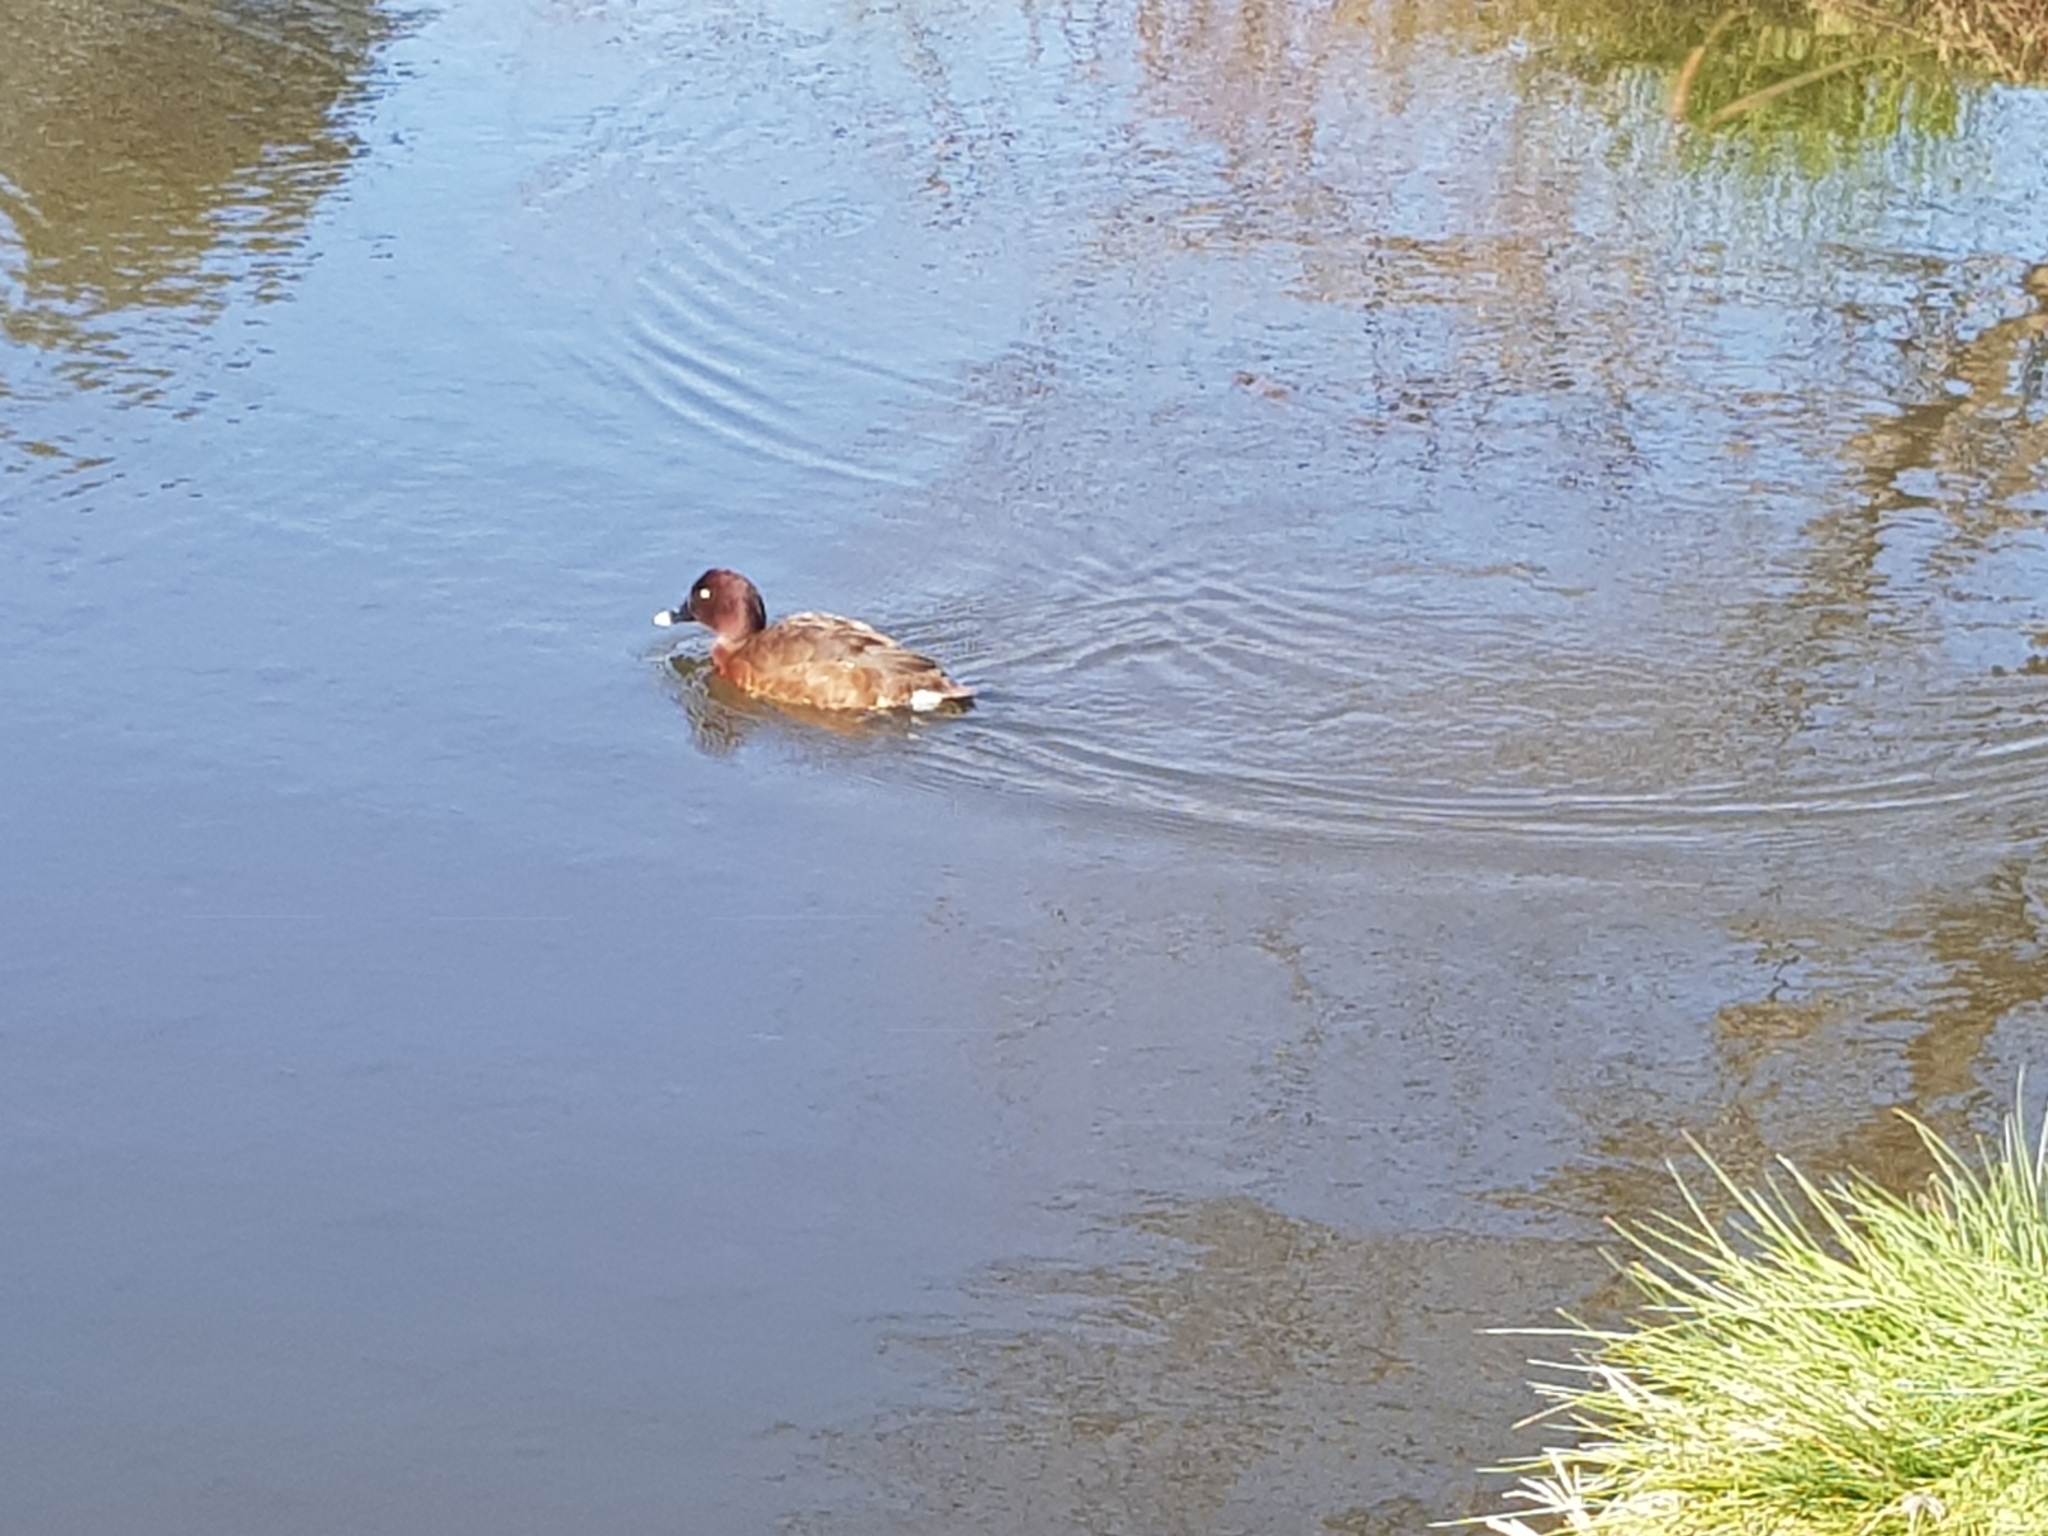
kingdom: Animalia
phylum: Chordata
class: Aves
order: Anseriformes
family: Anatidae
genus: Aythya
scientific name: Aythya australis
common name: Hardhead
